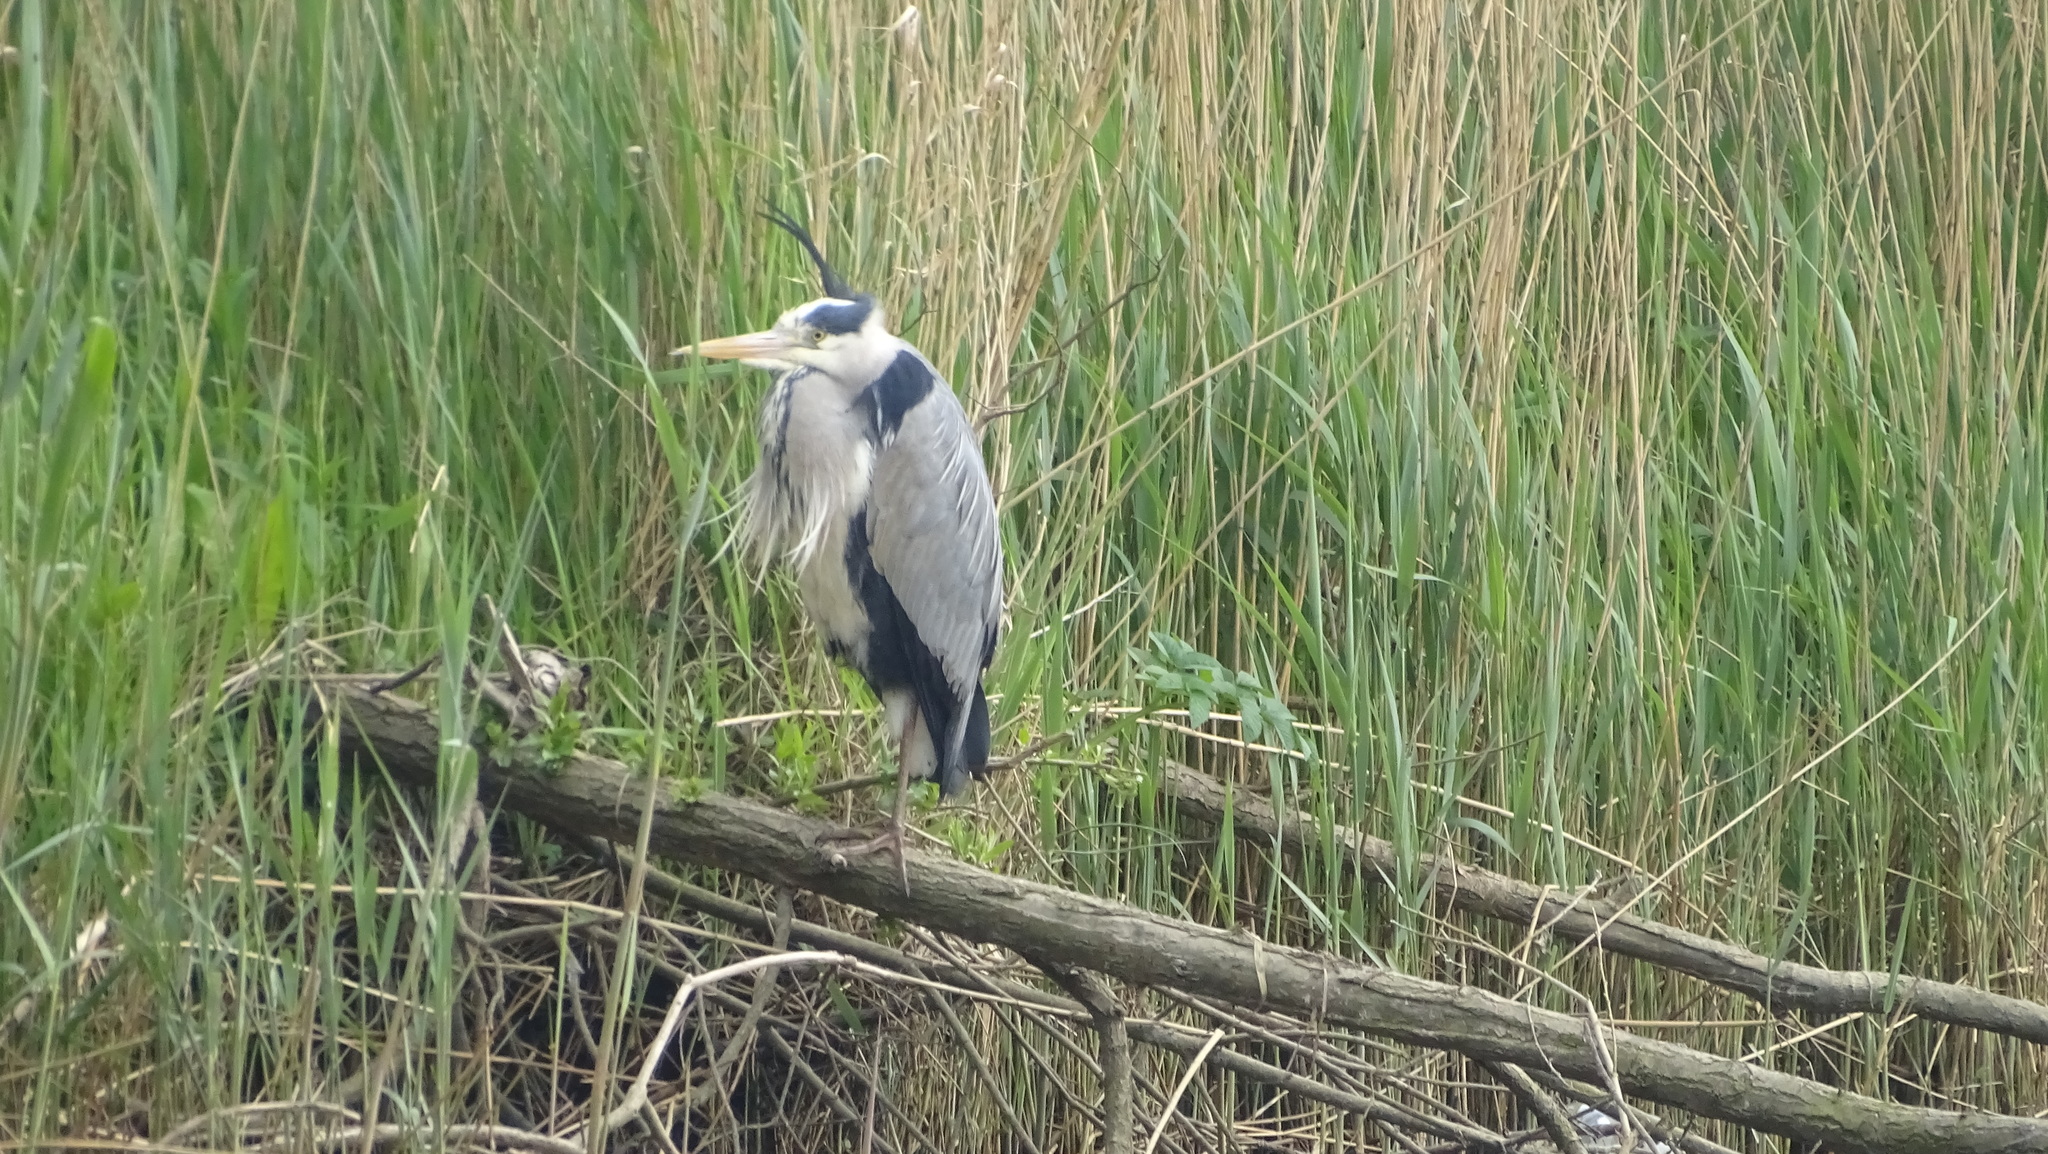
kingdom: Animalia
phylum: Chordata
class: Aves
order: Pelecaniformes
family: Ardeidae
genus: Ardea
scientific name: Ardea cinerea
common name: Grey heron
